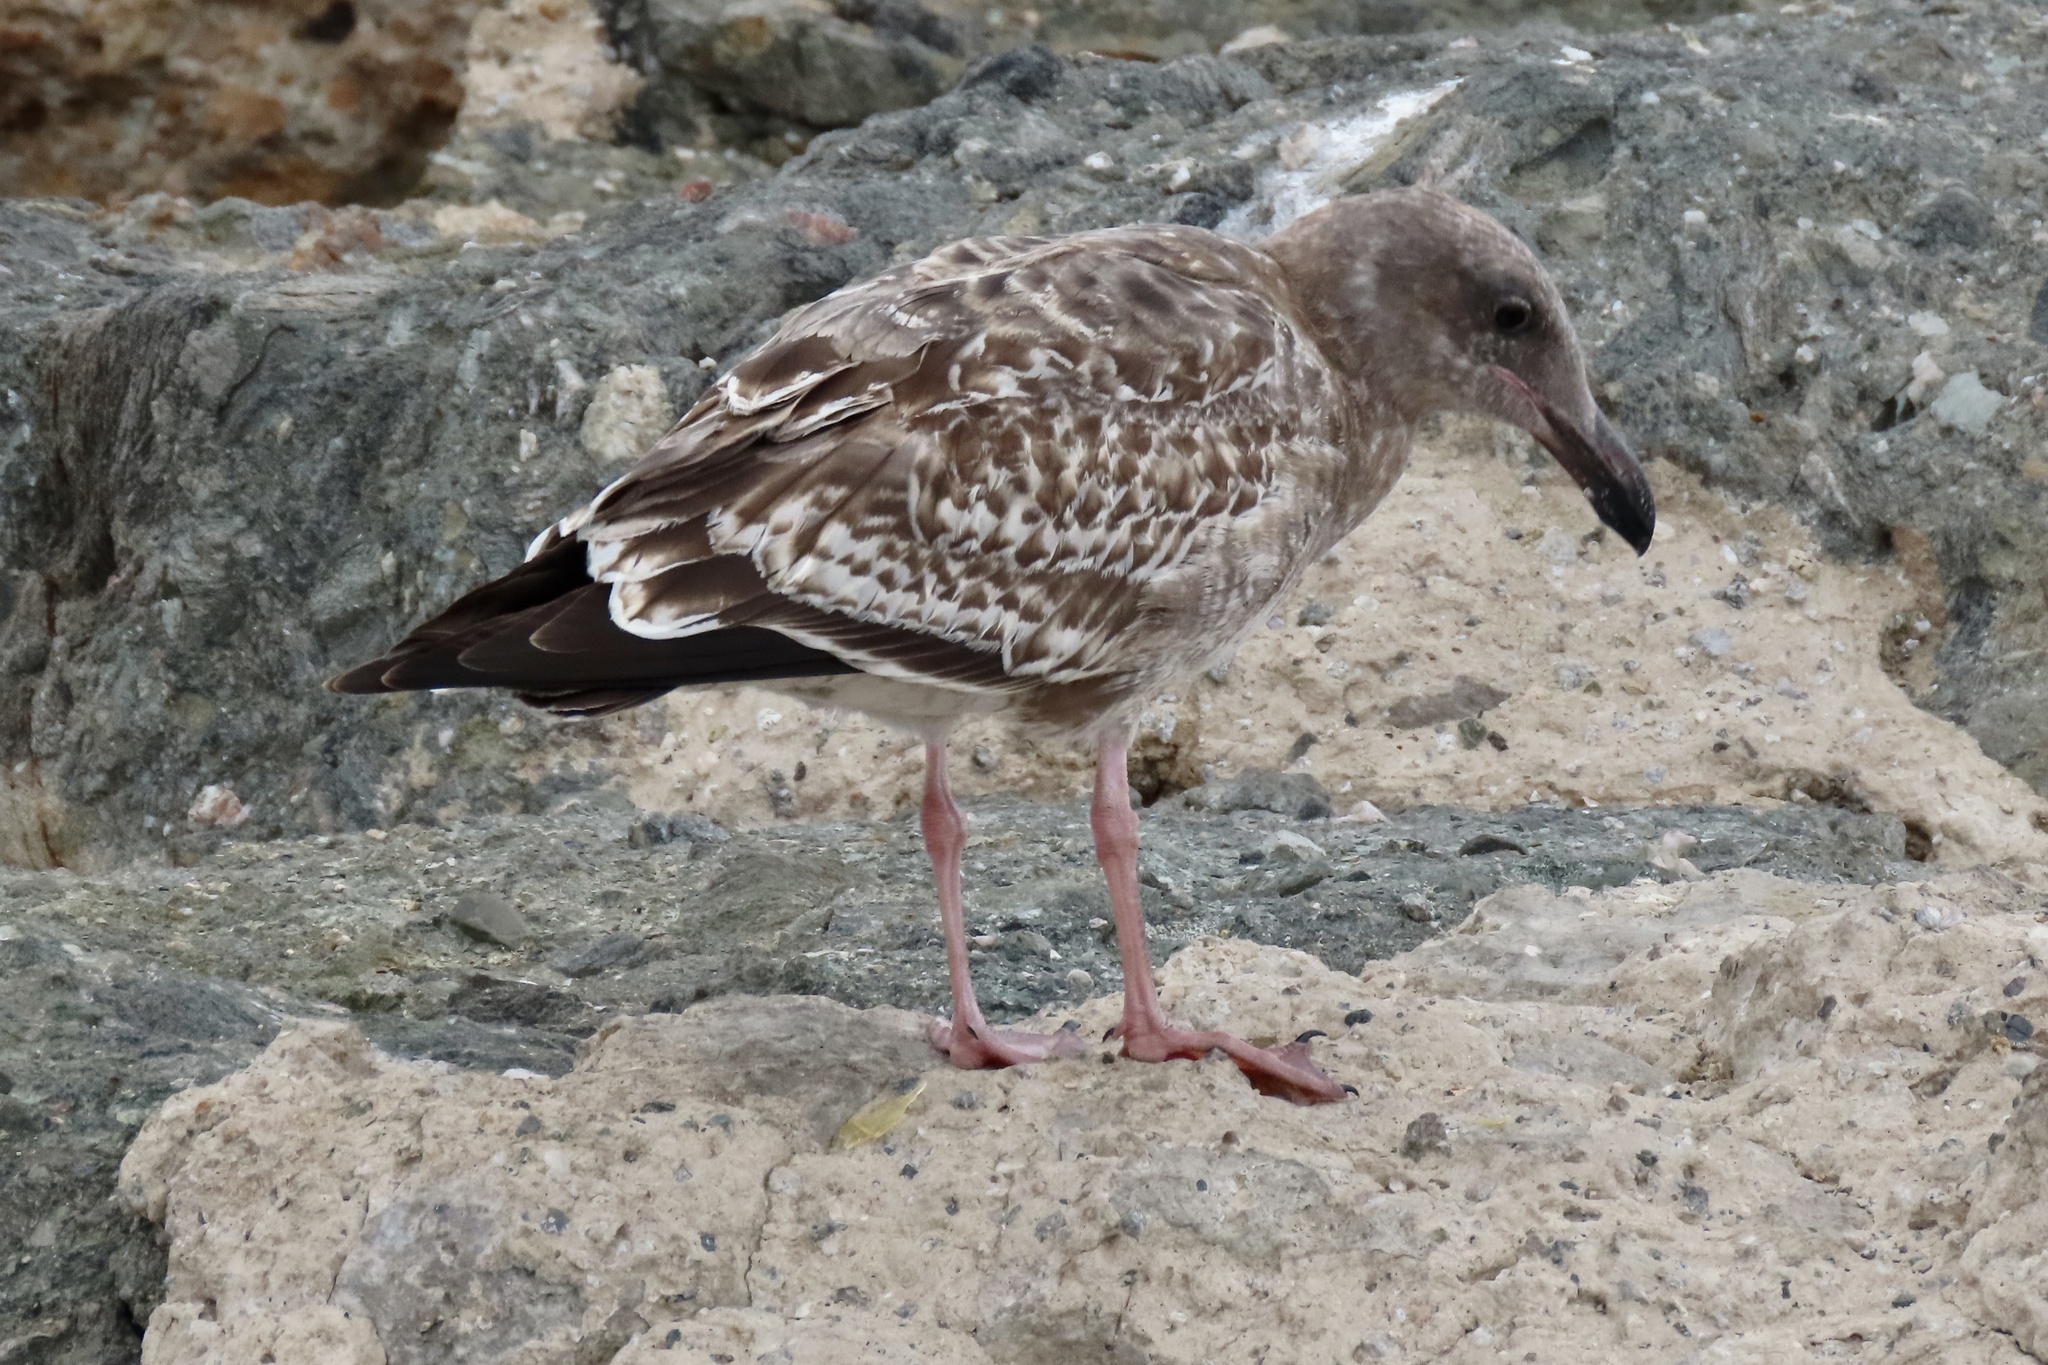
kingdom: Animalia
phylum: Chordata
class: Aves
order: Charadriiformes
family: Laridae
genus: Larus
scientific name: Larus occidentalis
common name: Western gull
